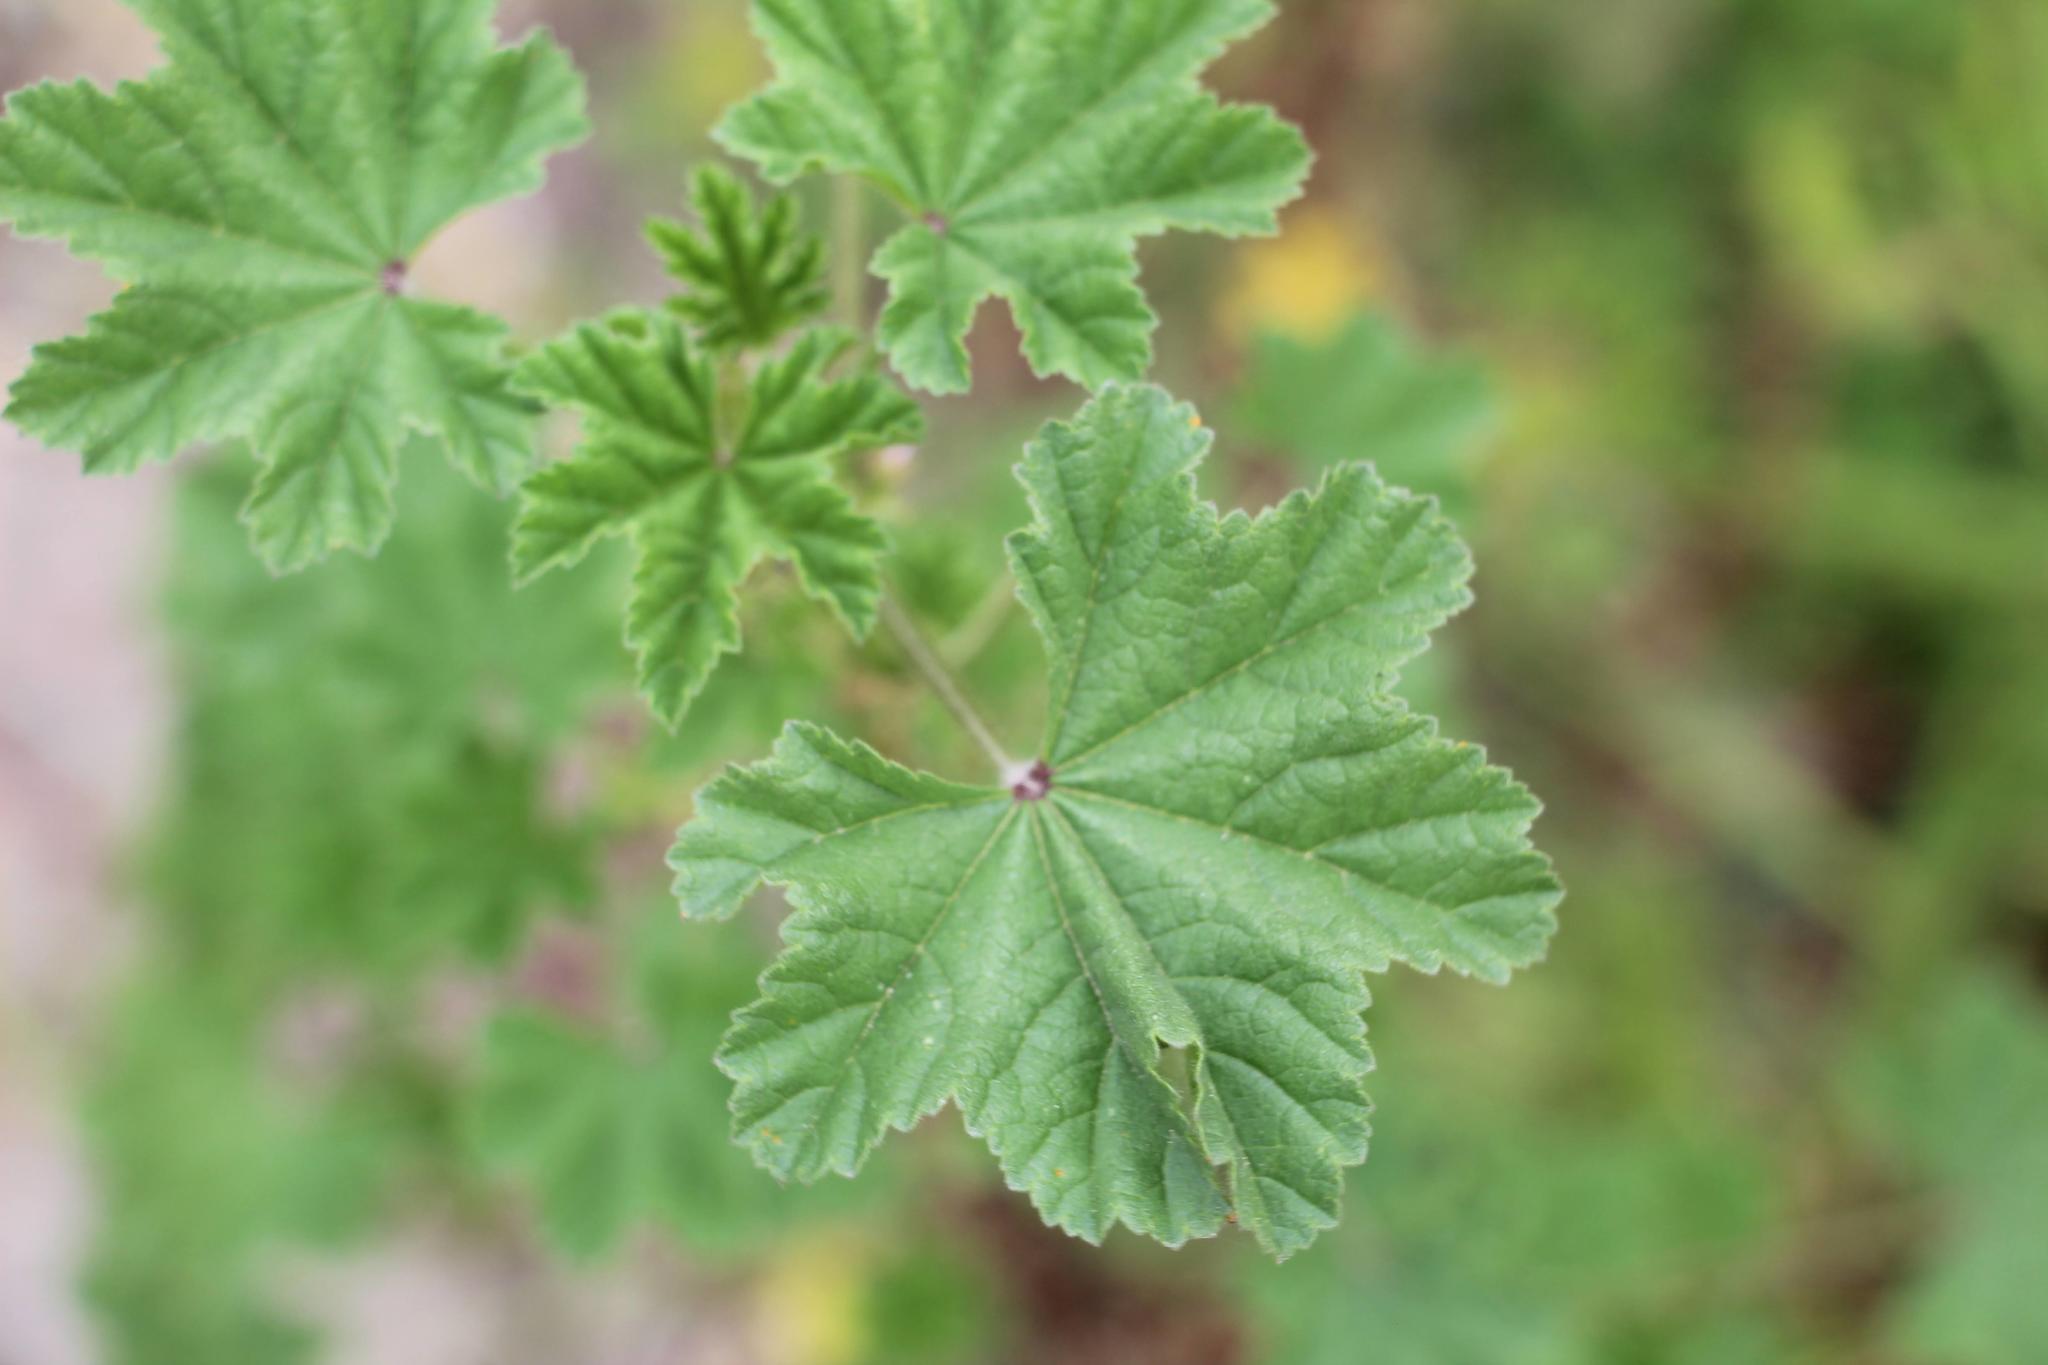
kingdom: Plantae
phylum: Tracheophyta
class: Magnoliopsida
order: Malvales
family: Malvaceae
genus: Malva
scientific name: Malva parviflora
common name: Least mallow
